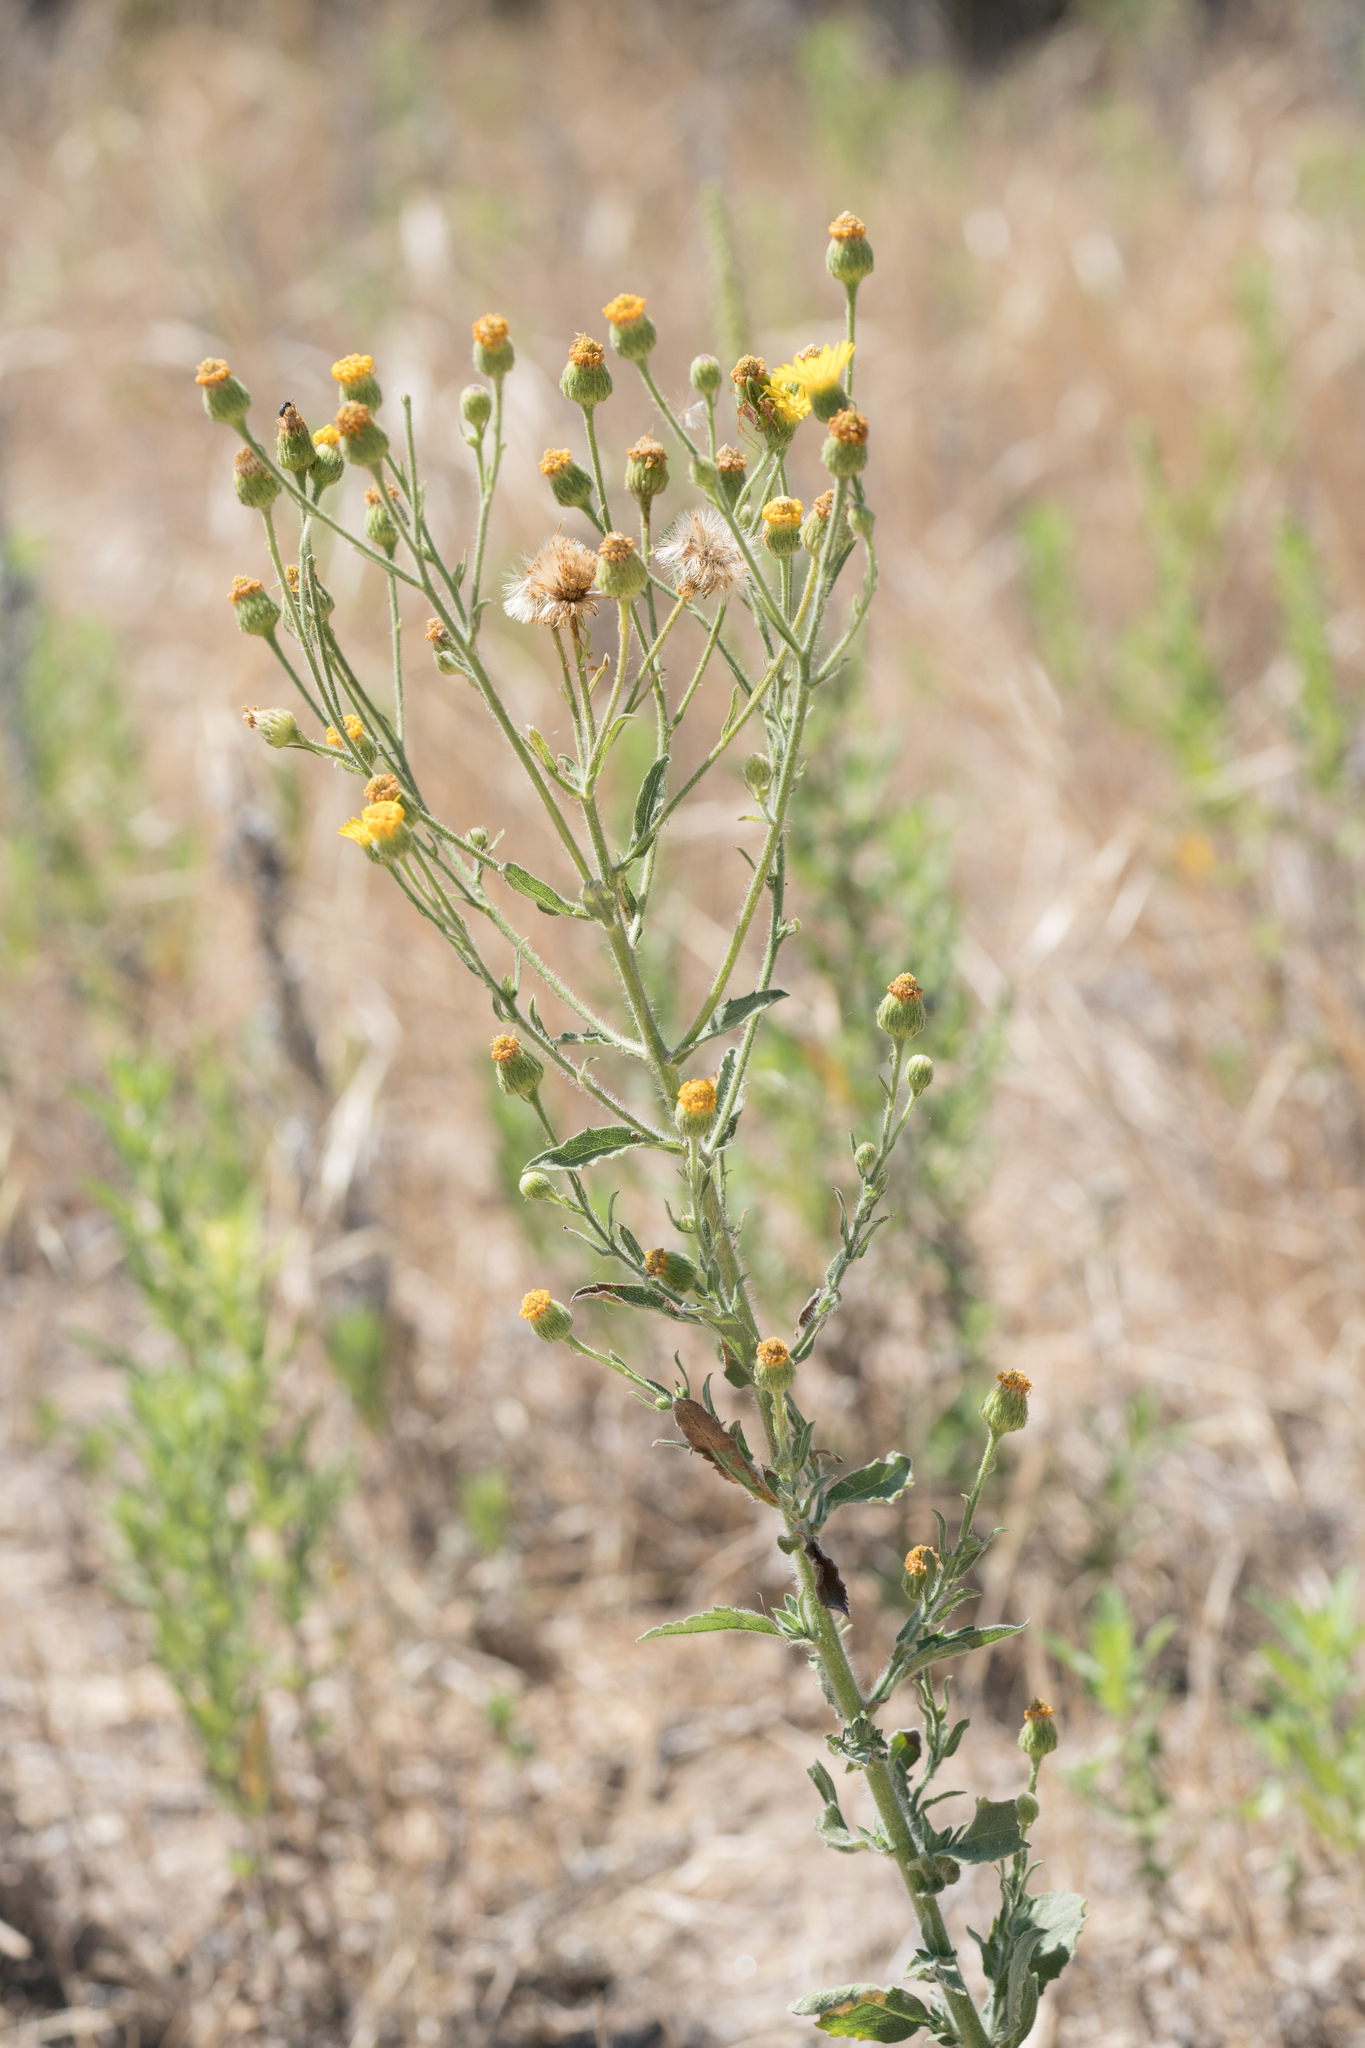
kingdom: Plantae
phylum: Tracheophyta
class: Magnoliopsida
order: Asterales
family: Asteraceae
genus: Heterotheca
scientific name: Heterotheca grandiflora
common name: Telegraphweed
